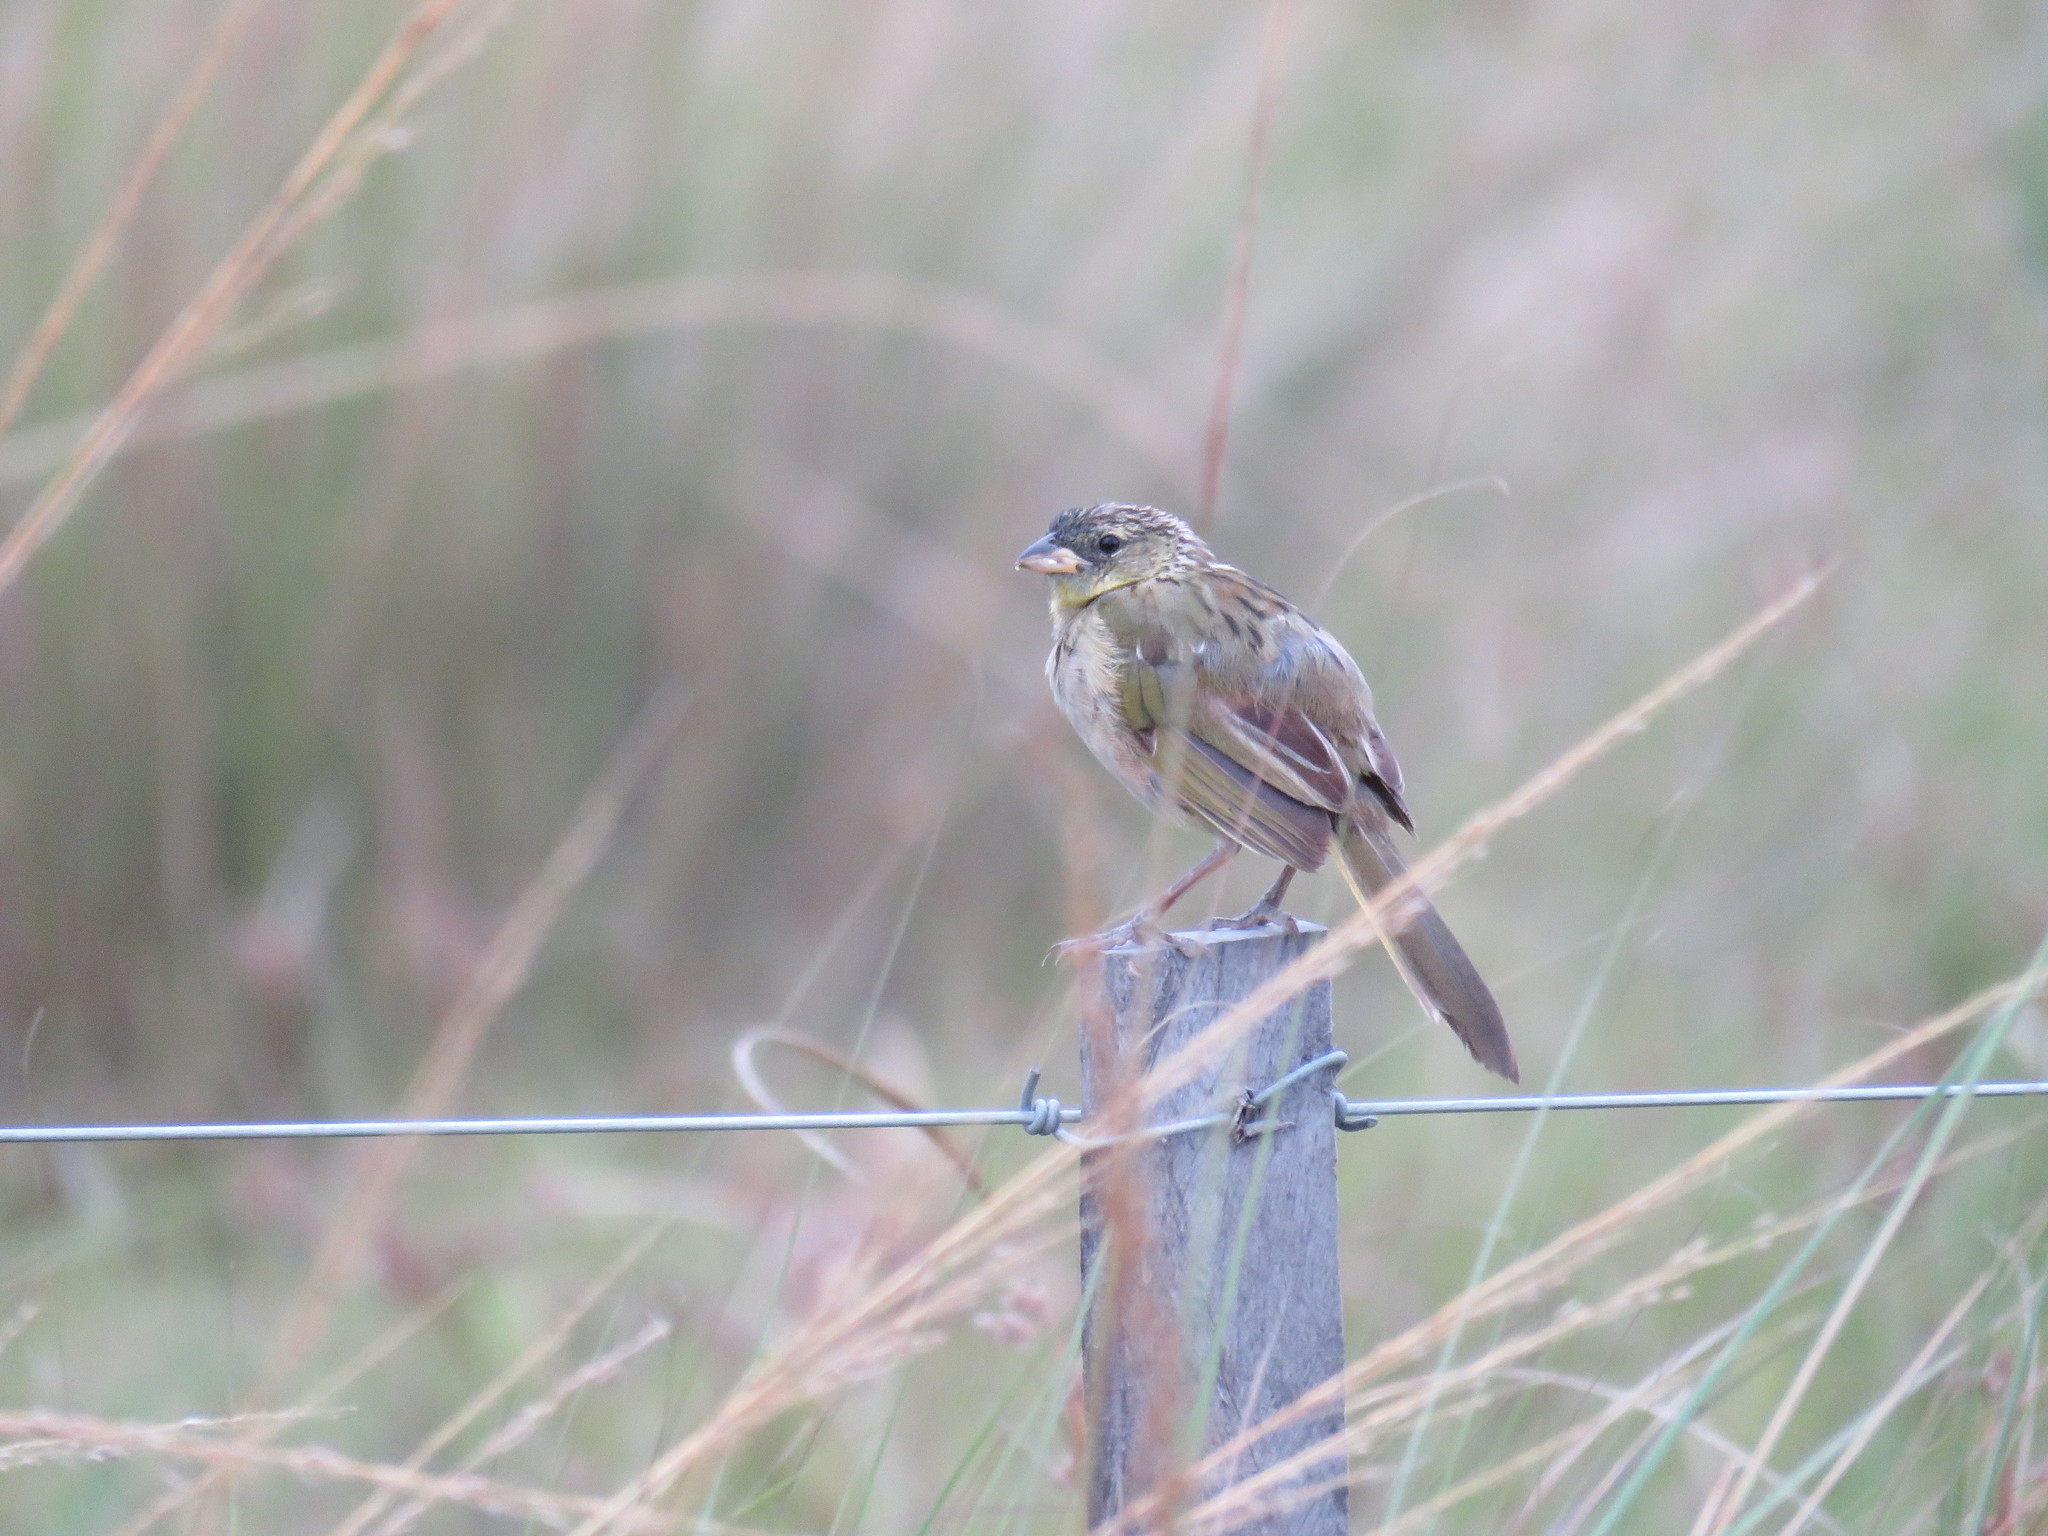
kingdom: Animalia
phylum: Chordata
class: Aves
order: Passeriformes
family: Thraupidae
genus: Embernagra
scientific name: Embernagra platensis
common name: Pampa finch
